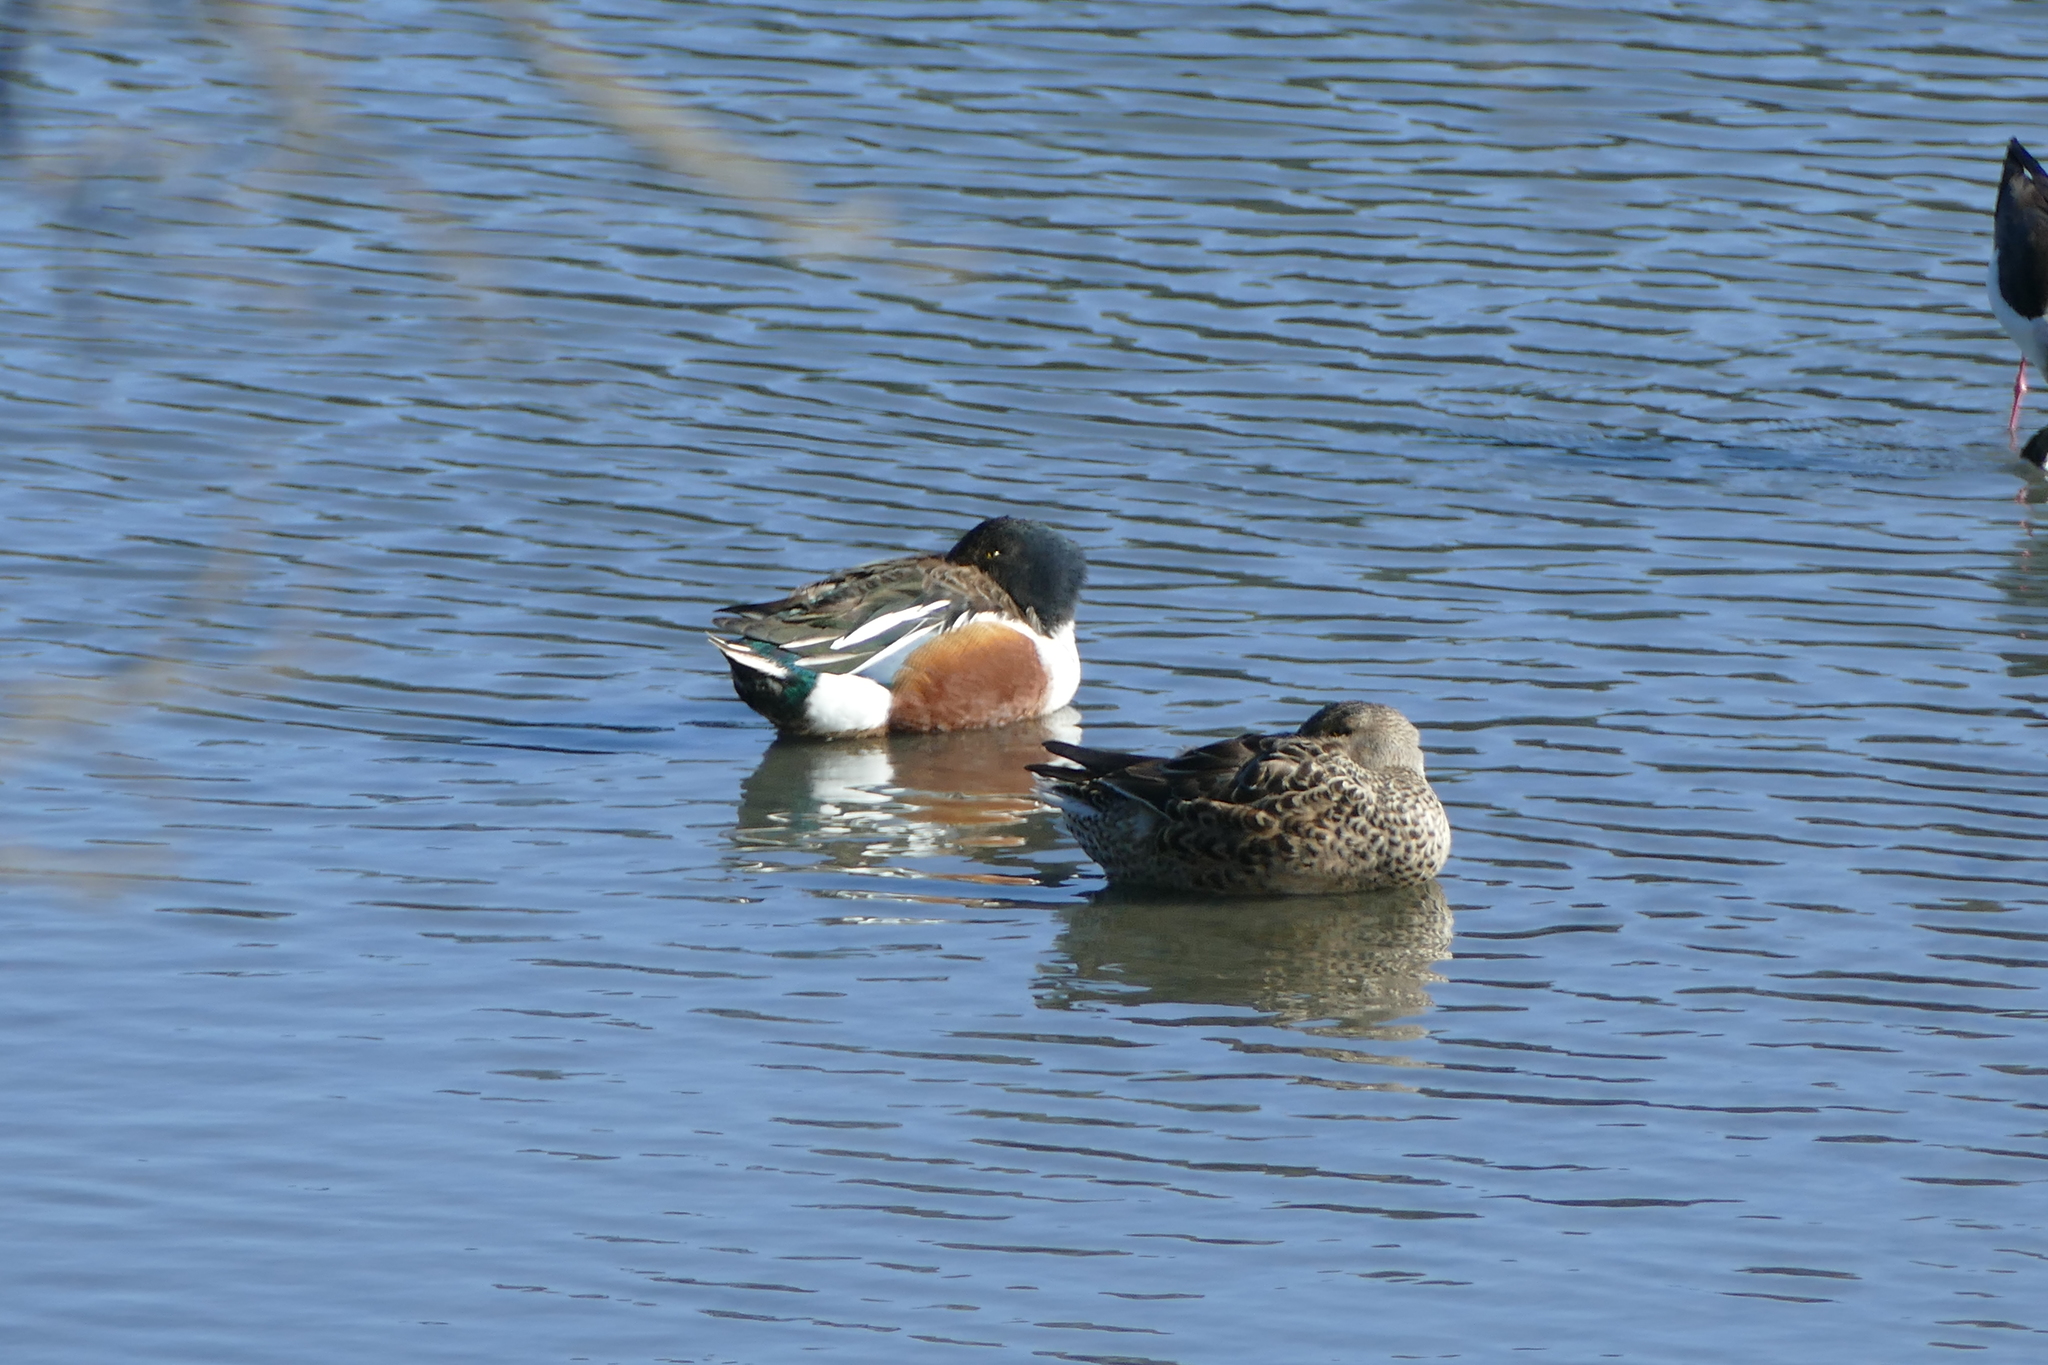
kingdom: Animalia
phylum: Chordata
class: Aves
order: Anseriformes
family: Anatidae
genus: Spatula
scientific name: Spatula clypeata
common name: Northern shoveler
